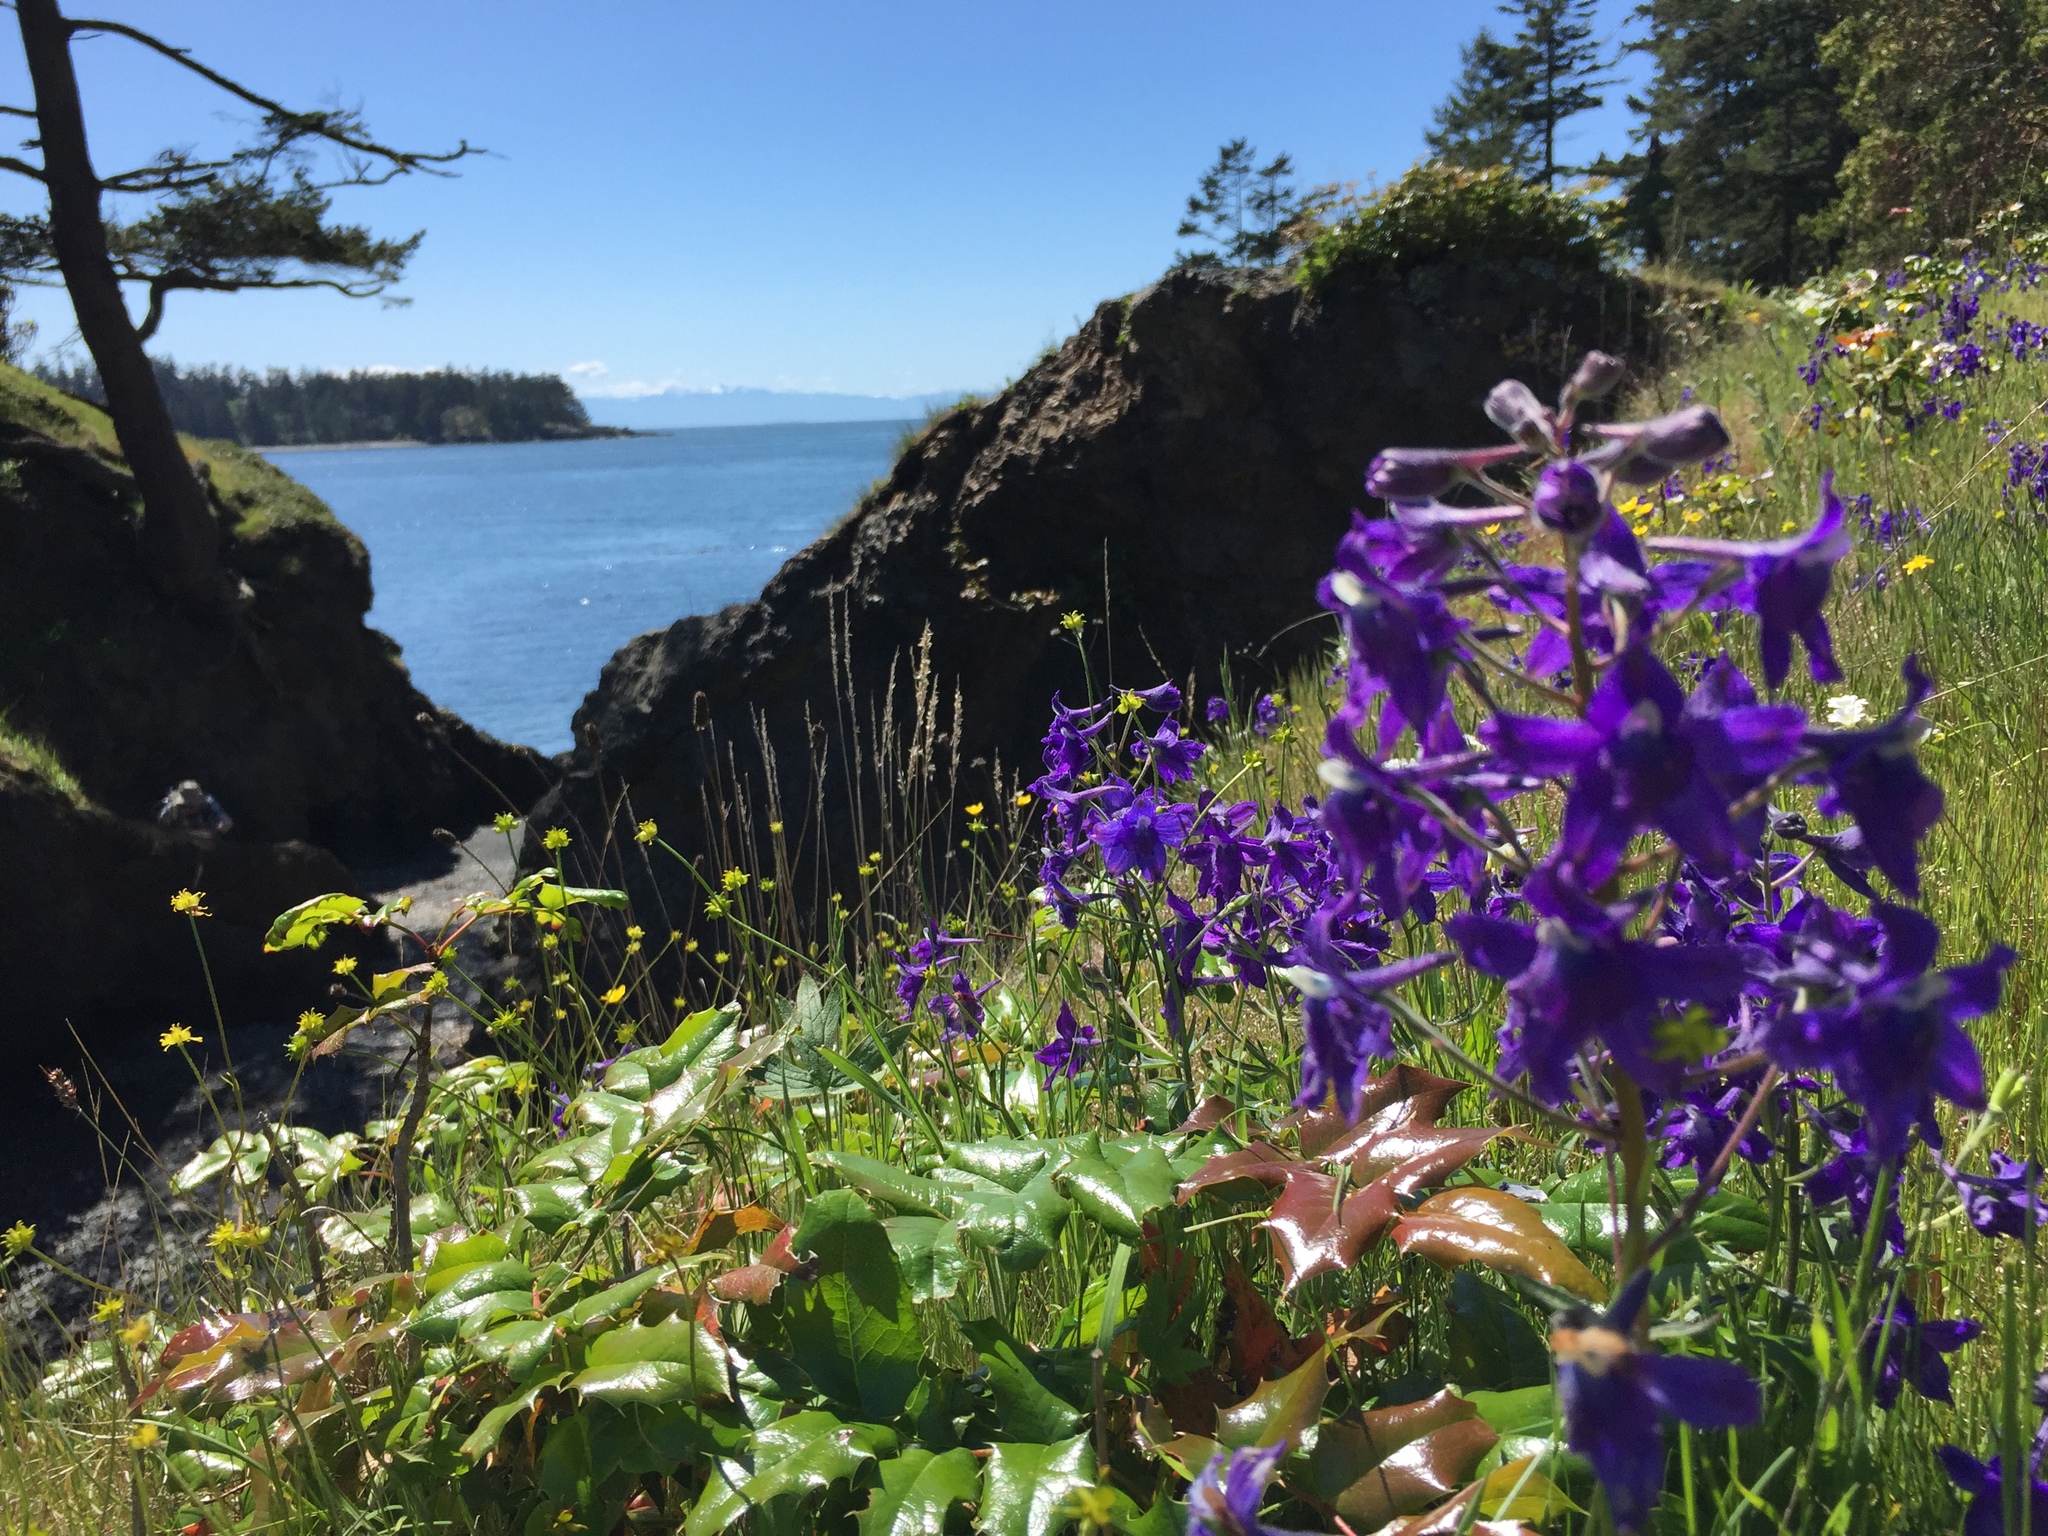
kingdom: Plantae
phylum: Tracheophyta
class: Magnoliopsida
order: Ranunculales
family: Ranunculaceae
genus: Delphinium
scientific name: Delphinium menziesii
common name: Menzies's larkspur
